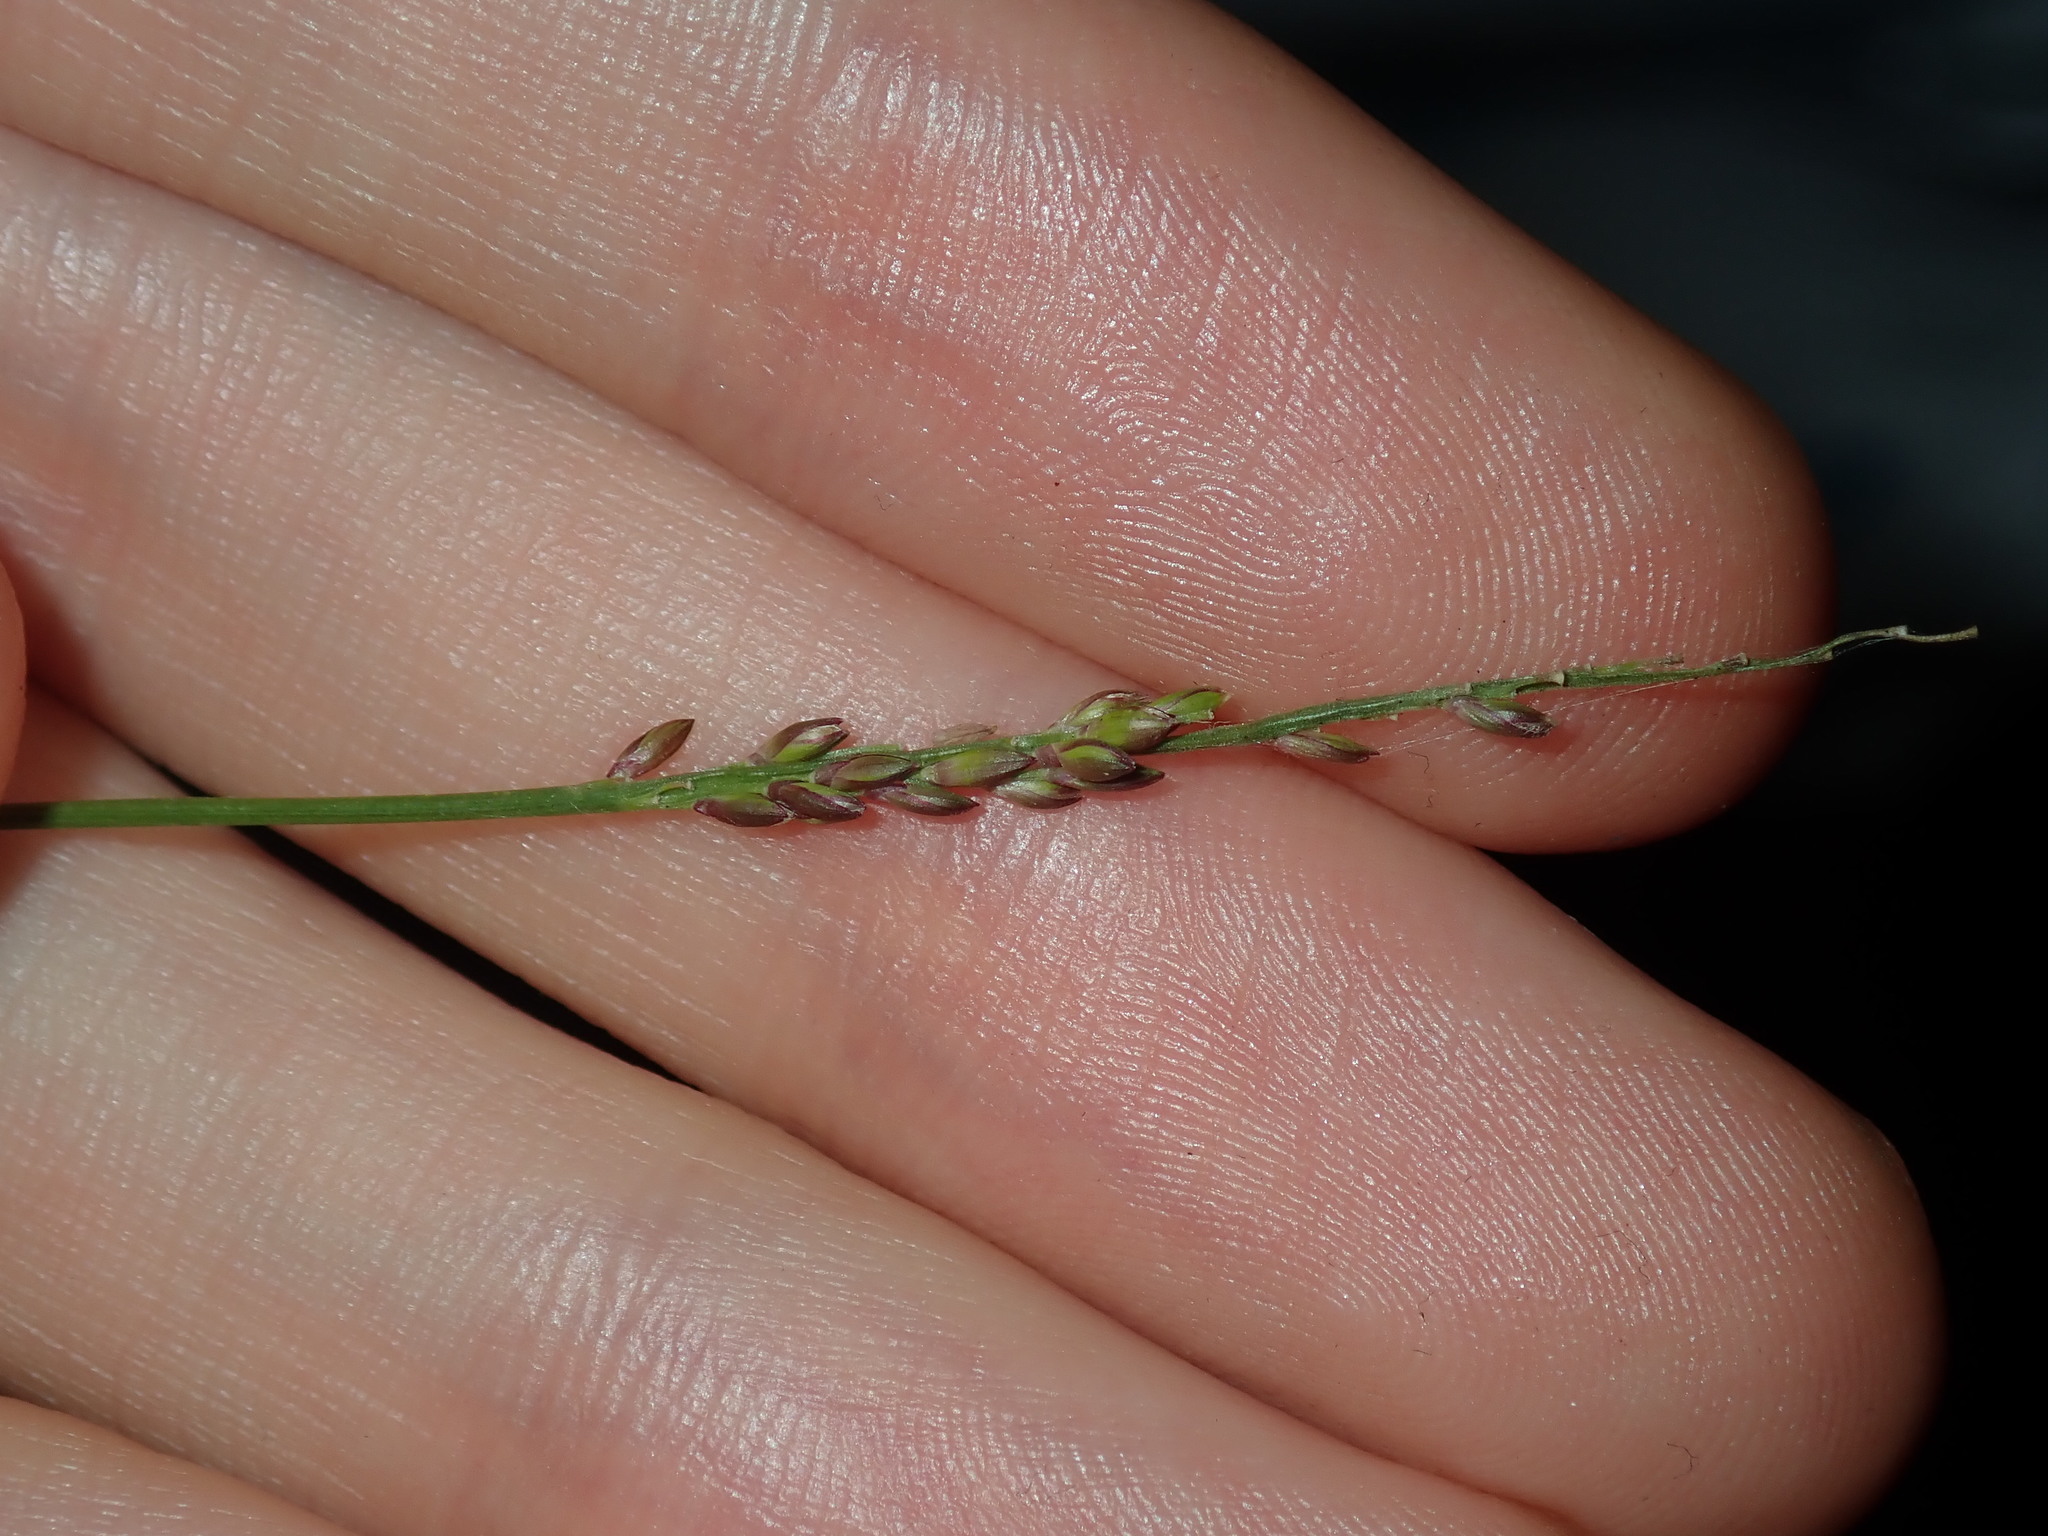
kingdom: Plantae
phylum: Tracheophyta
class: Liliopsida
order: Poales
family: Poaceae
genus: Entolasia
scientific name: Entolasia stricta
